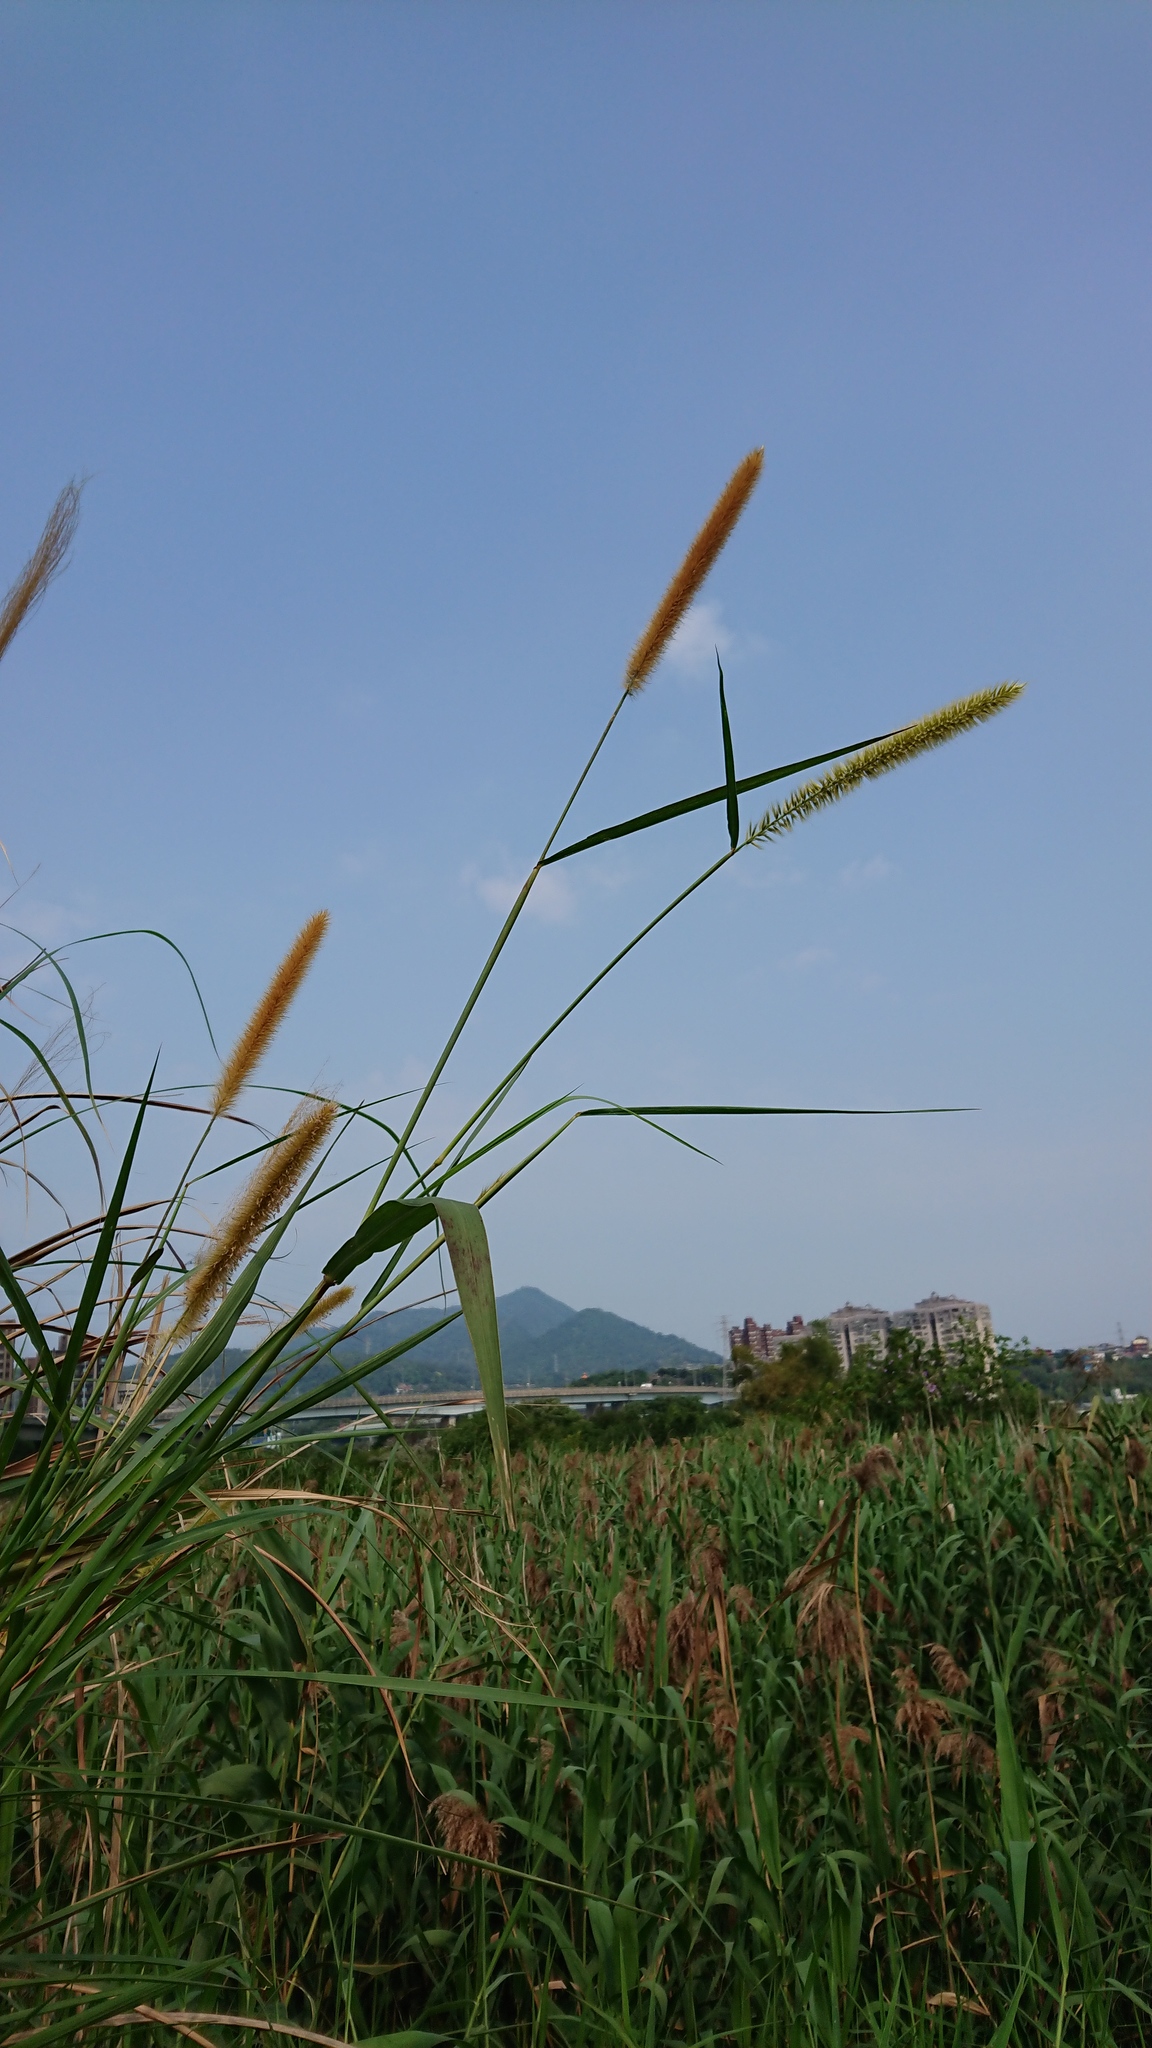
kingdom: Plantae
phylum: Tracheophyta
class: Liliopsida
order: Poales
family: Poaceae
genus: Cenchrus
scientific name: Cenchrus purpureus
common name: Elephant grass
